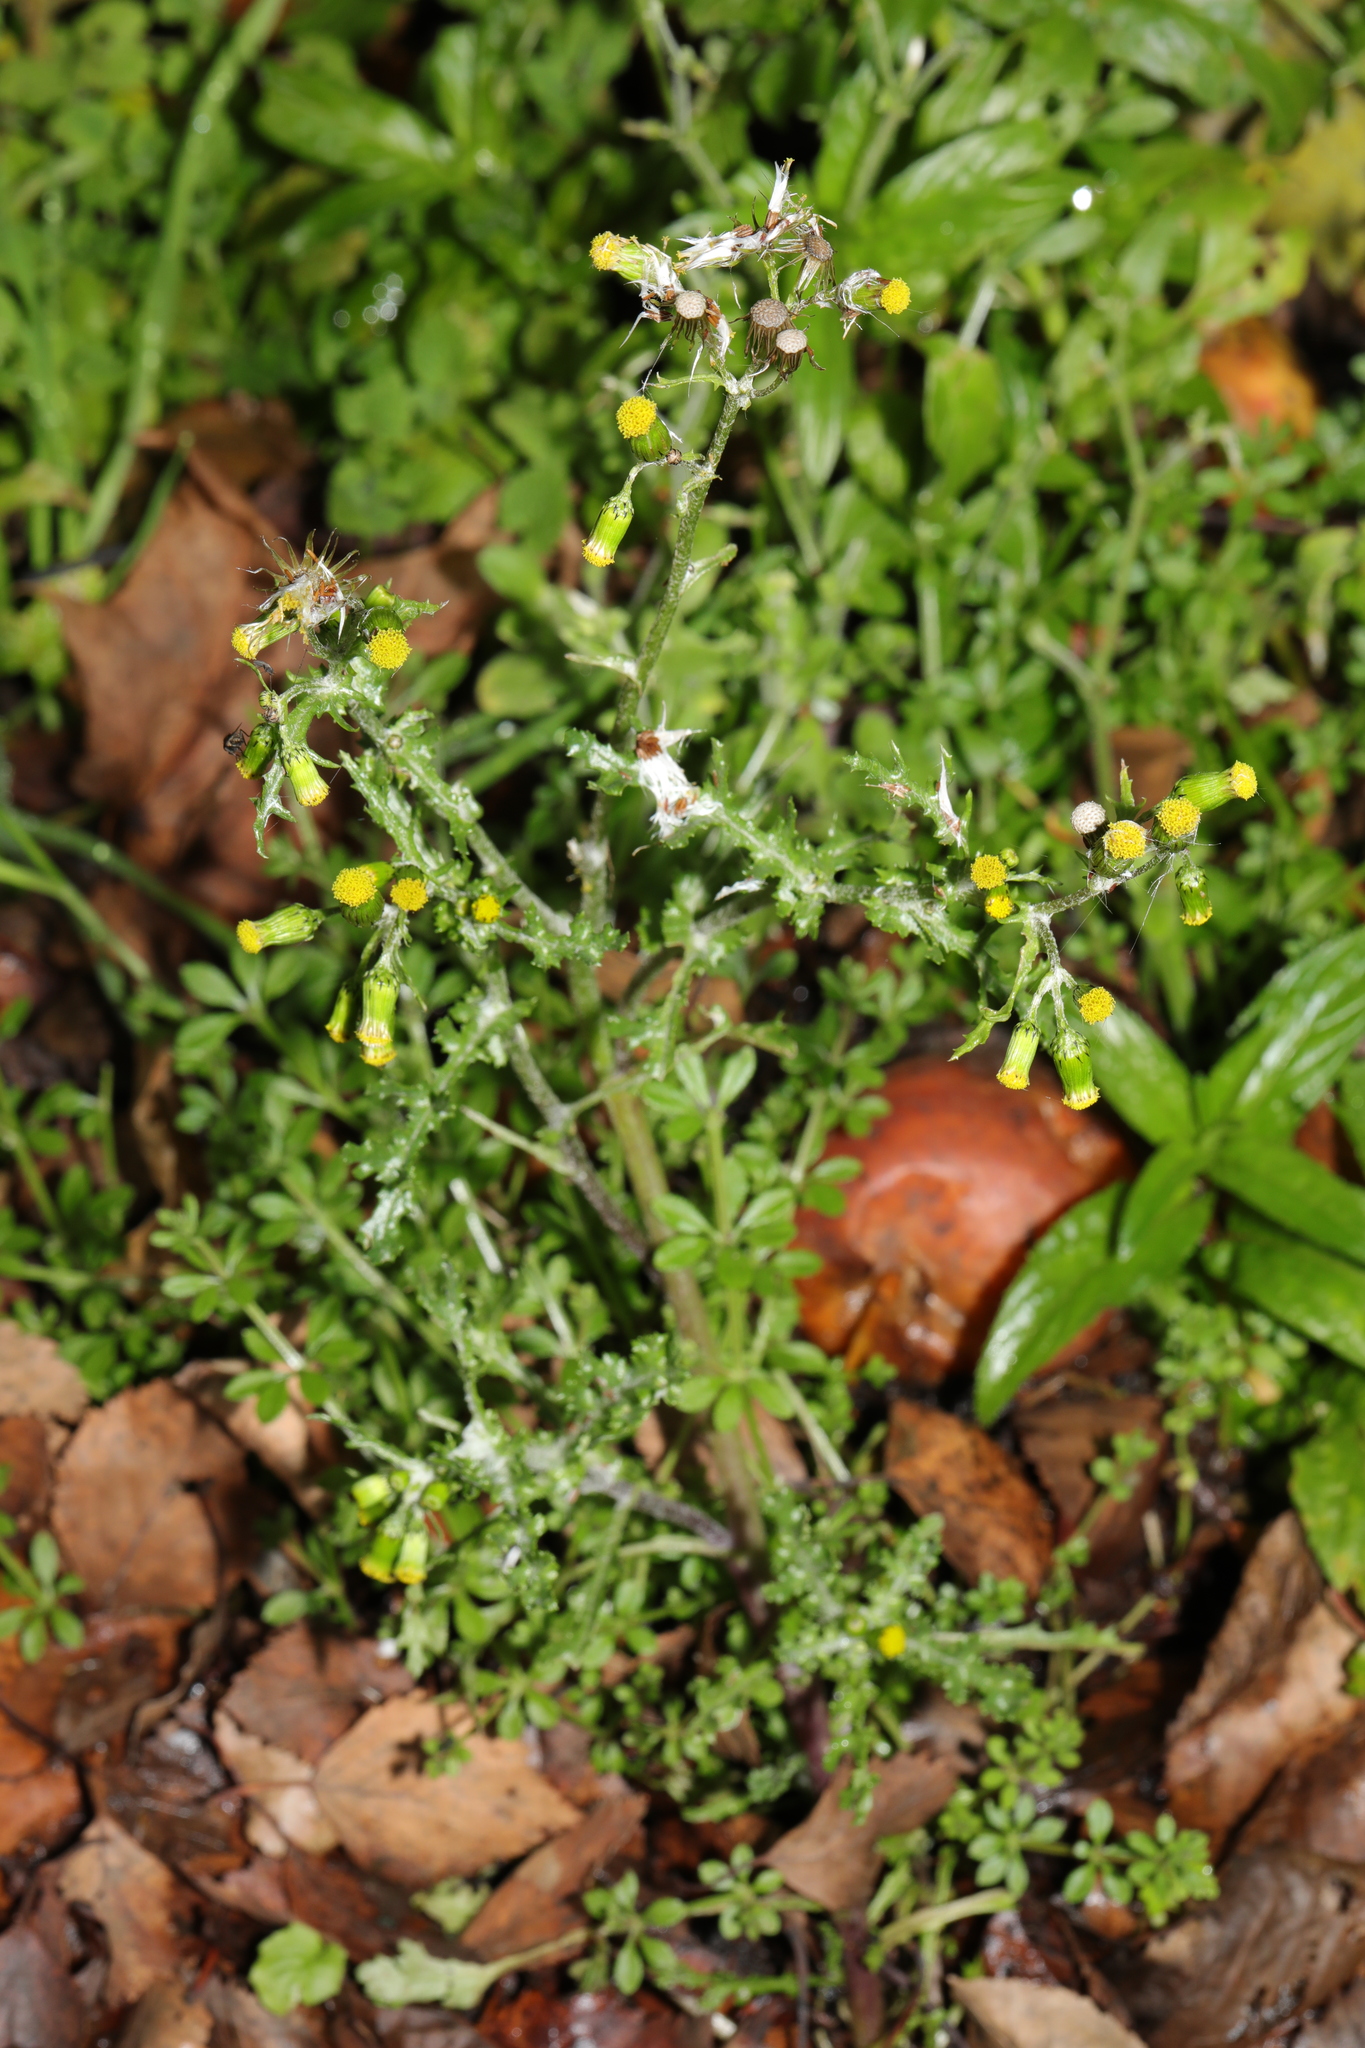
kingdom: Plantae
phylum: Tracheophyta
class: Magnoliopsida
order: Asterales
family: Asteraceae
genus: Senecio
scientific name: Senecio vulgaris
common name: Old-man-in-the-spring
